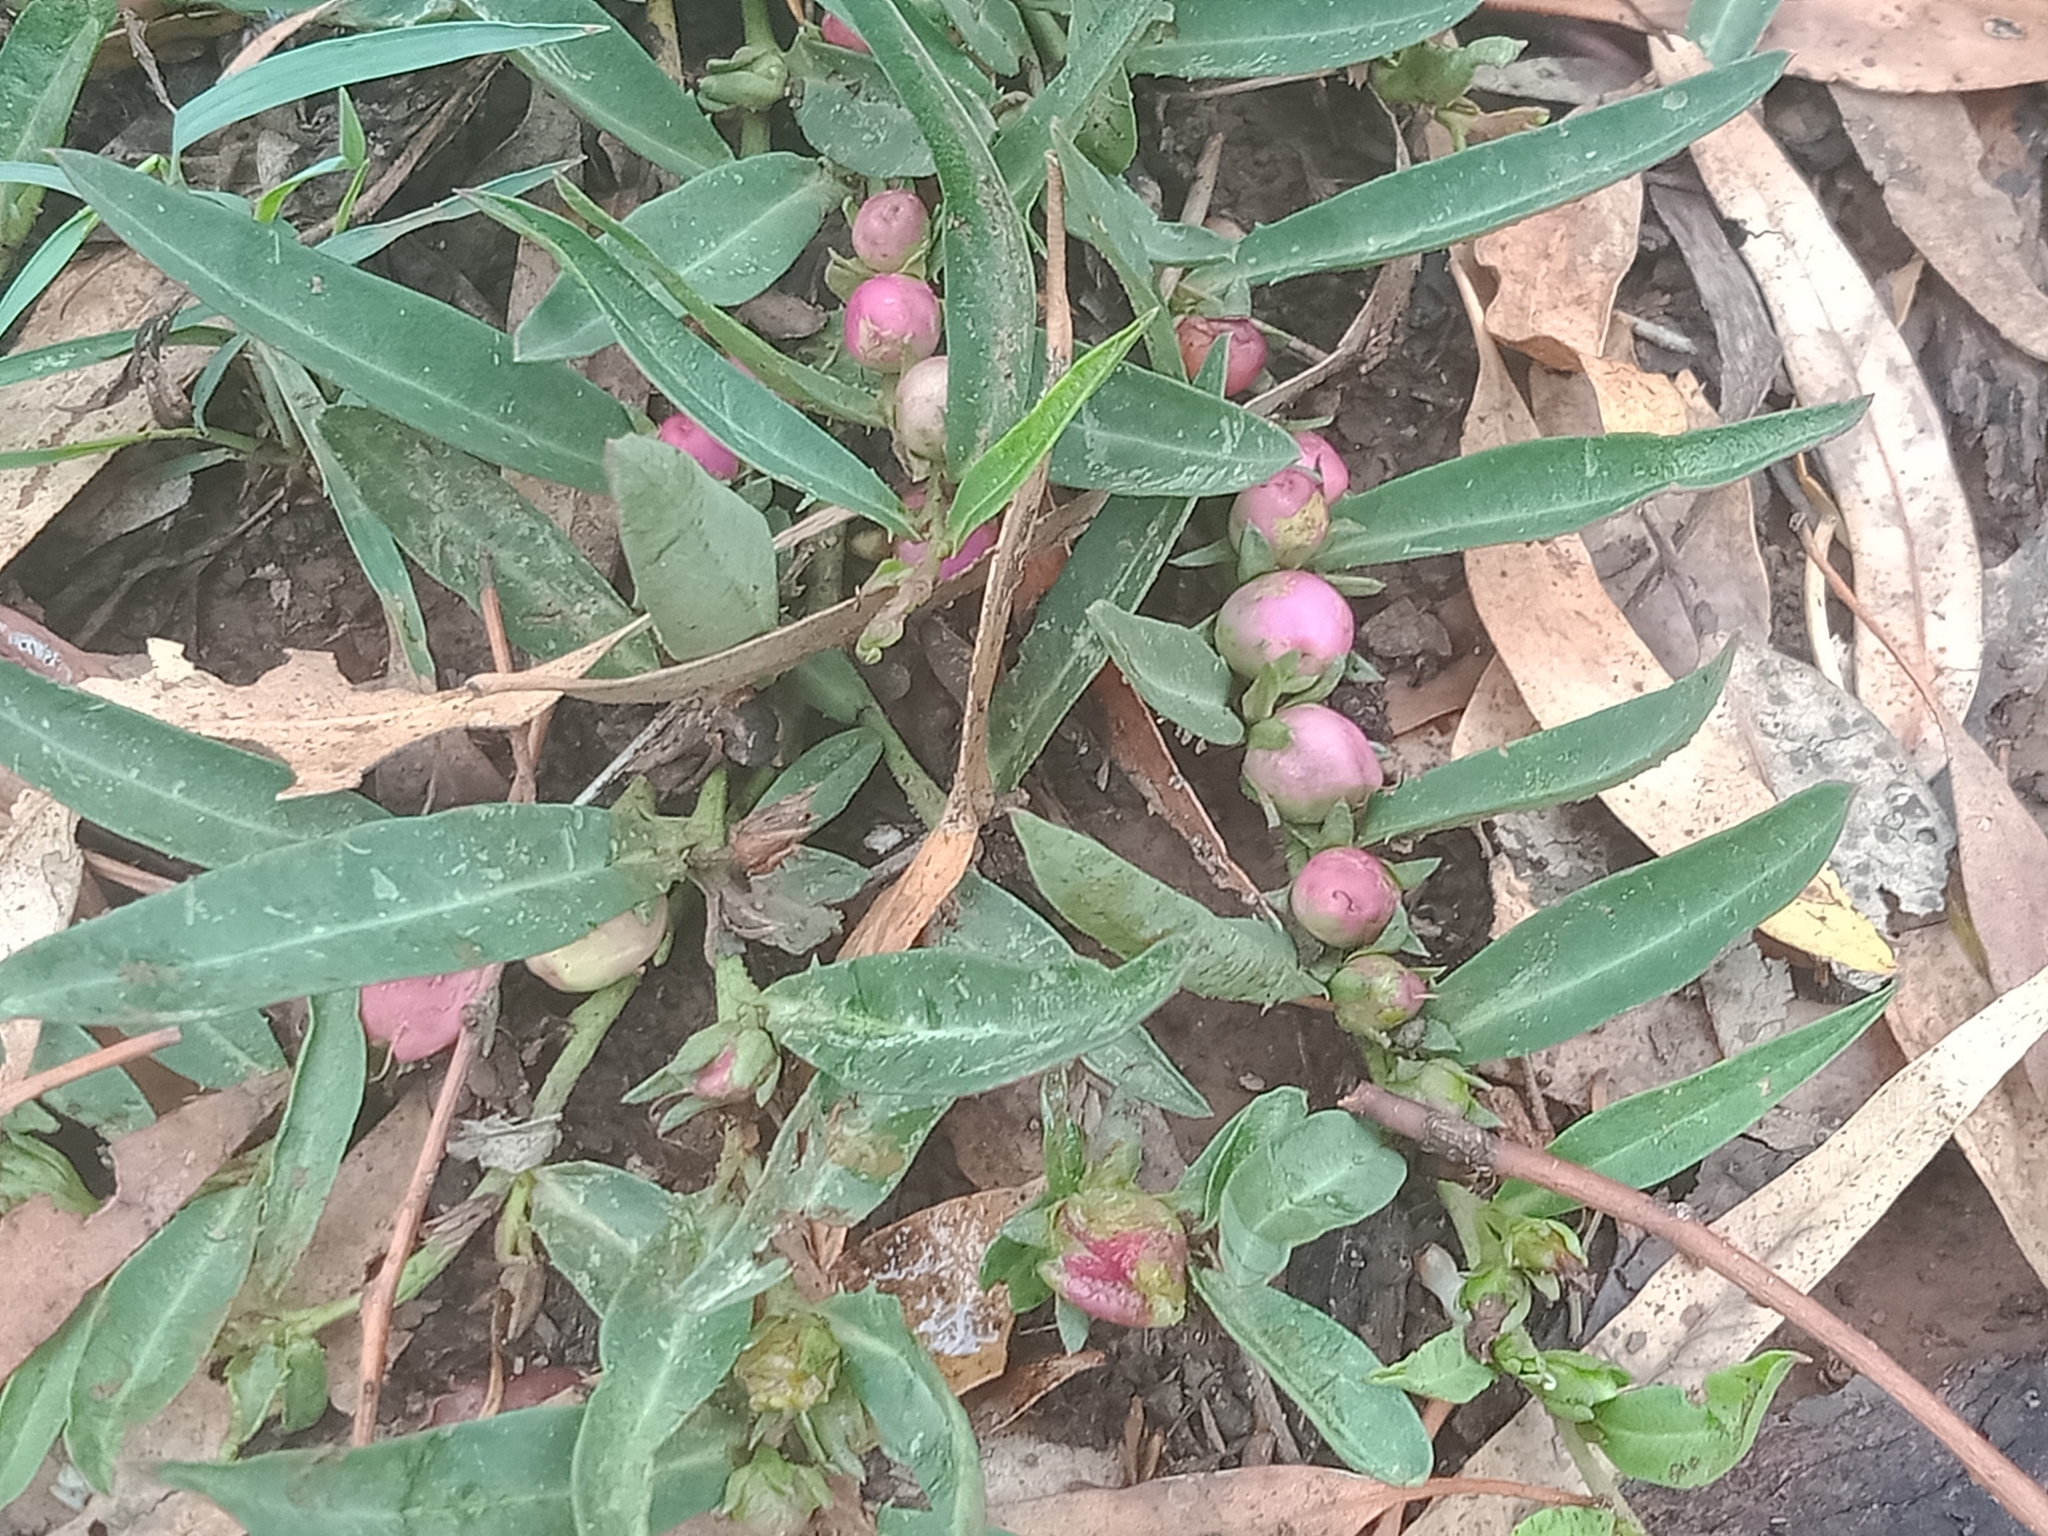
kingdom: Plantae
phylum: Tracheophyta
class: Magnoliopsida
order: Lamiales
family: Scrophulariaceae
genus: Eremophila
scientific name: Eremophila debilis
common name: Winter-apple
